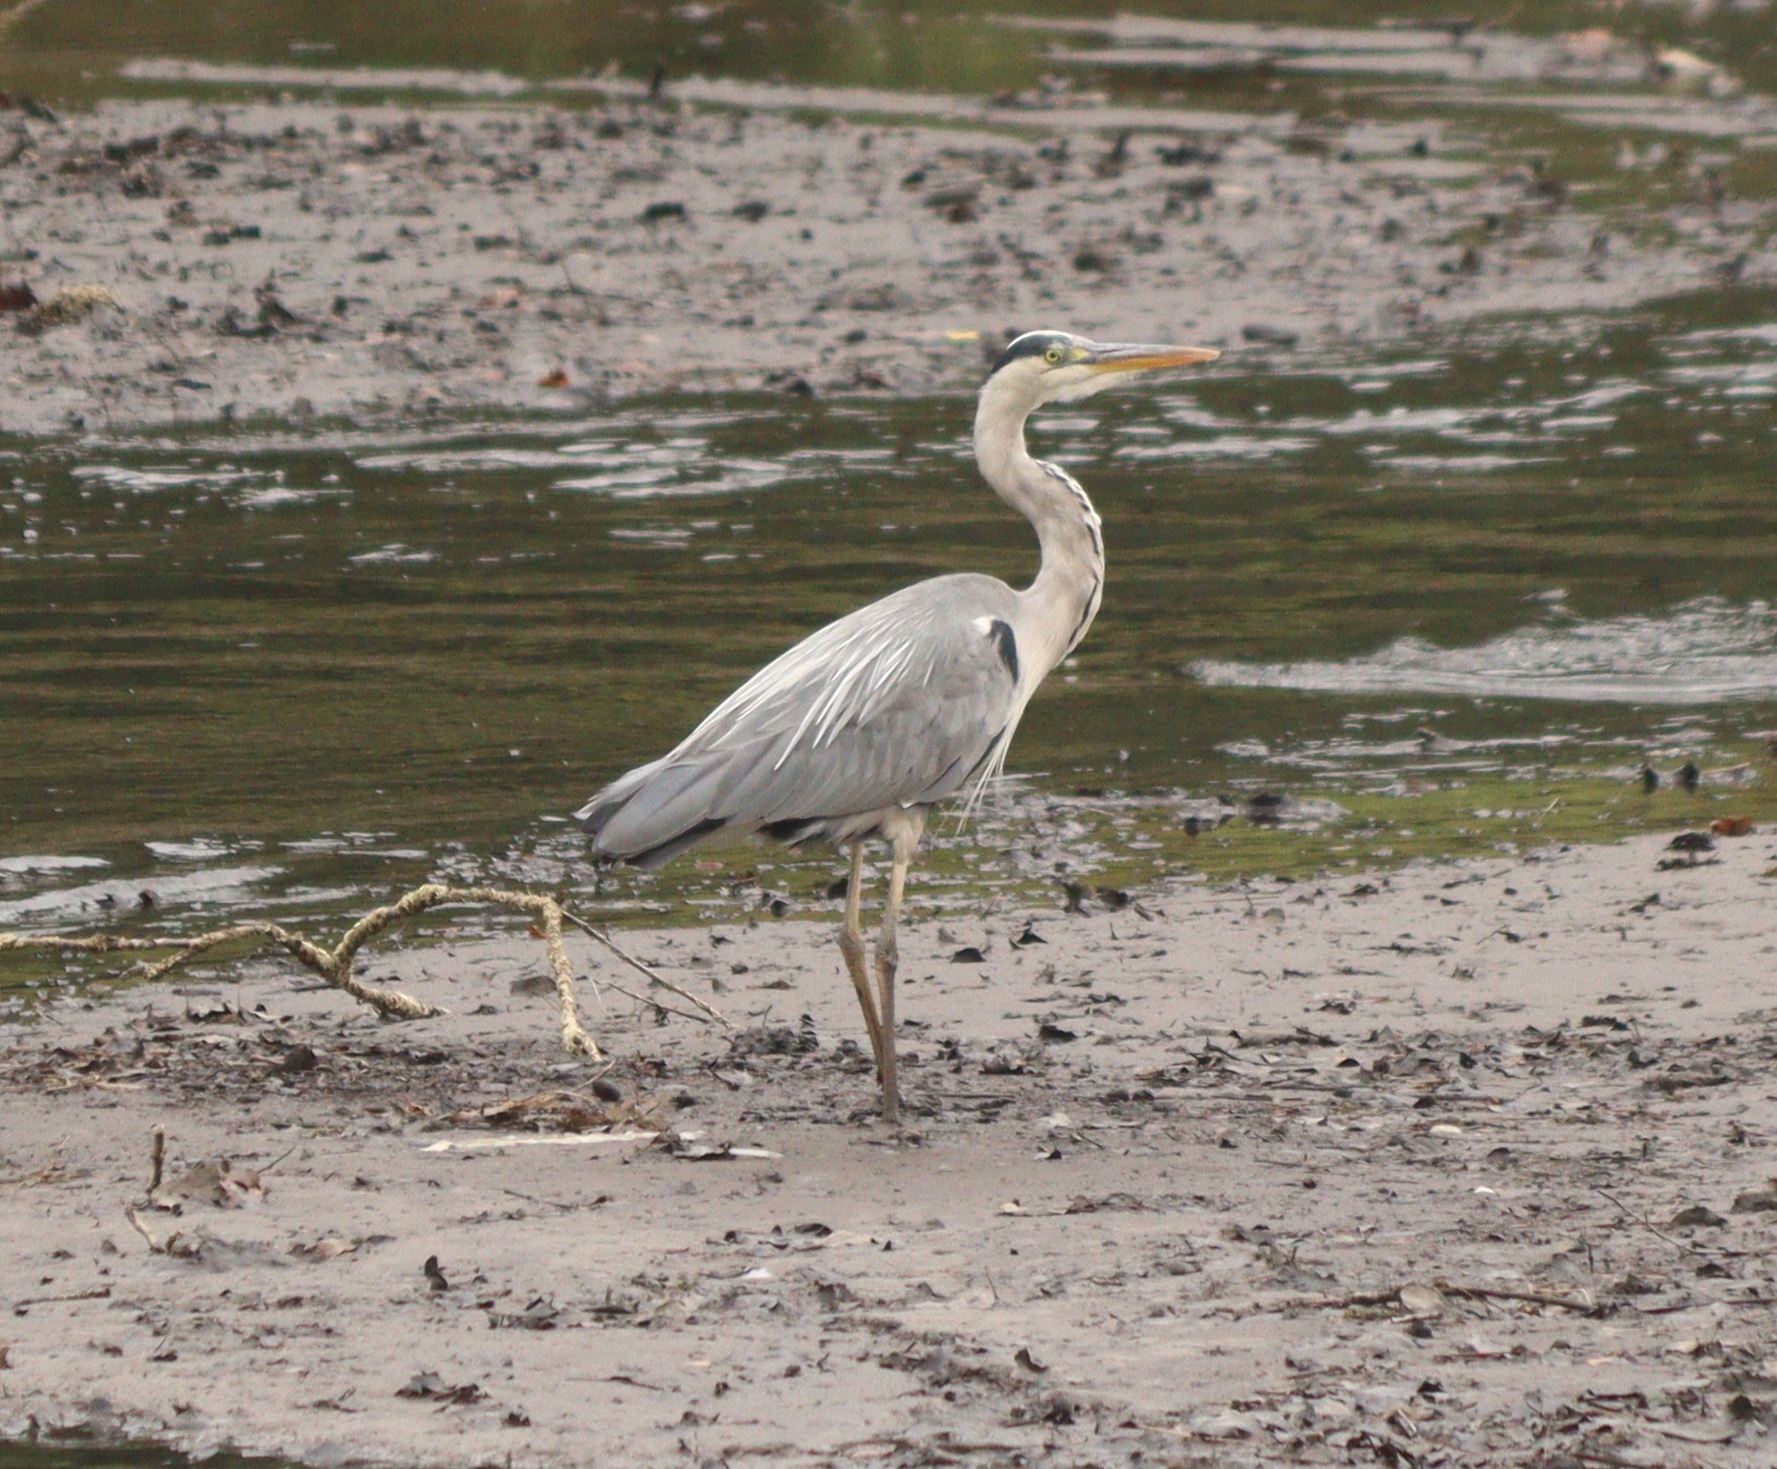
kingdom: Animalia
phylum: Chordata
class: Aves
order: Pelecaniformes
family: Ardeidae
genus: Ardea
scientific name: Ardea cinerea
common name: Grey heron
